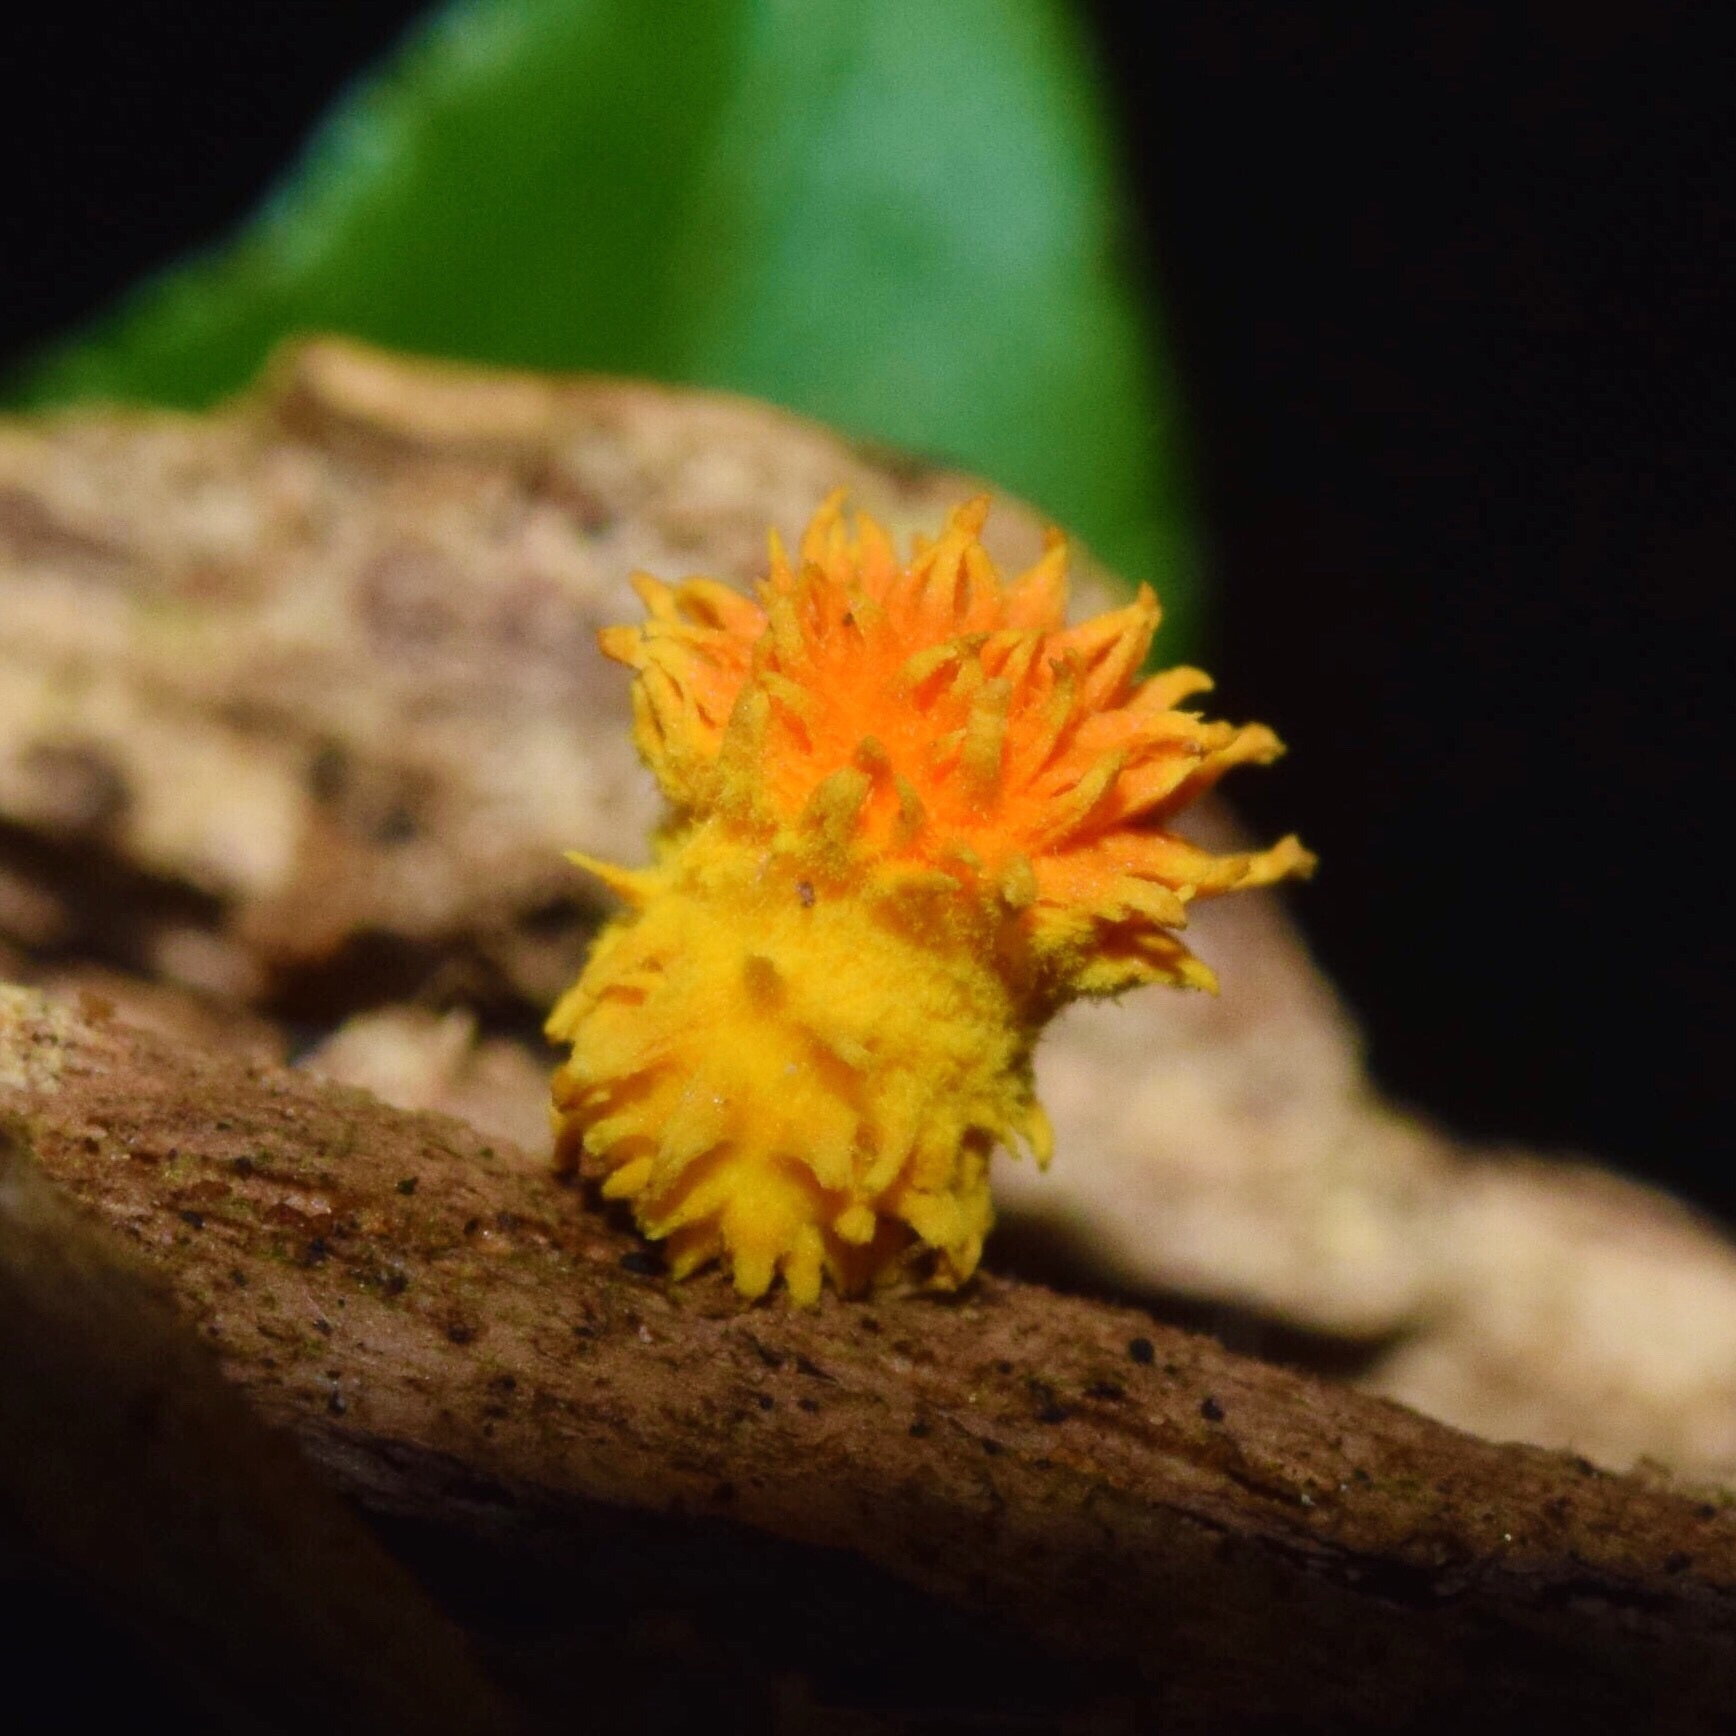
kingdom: Fungi
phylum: Basidiomycota
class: Agaricomycetes
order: Agaricales
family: Physalacriaceae
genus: Cyptotrama
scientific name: Cyptotrama asprata
